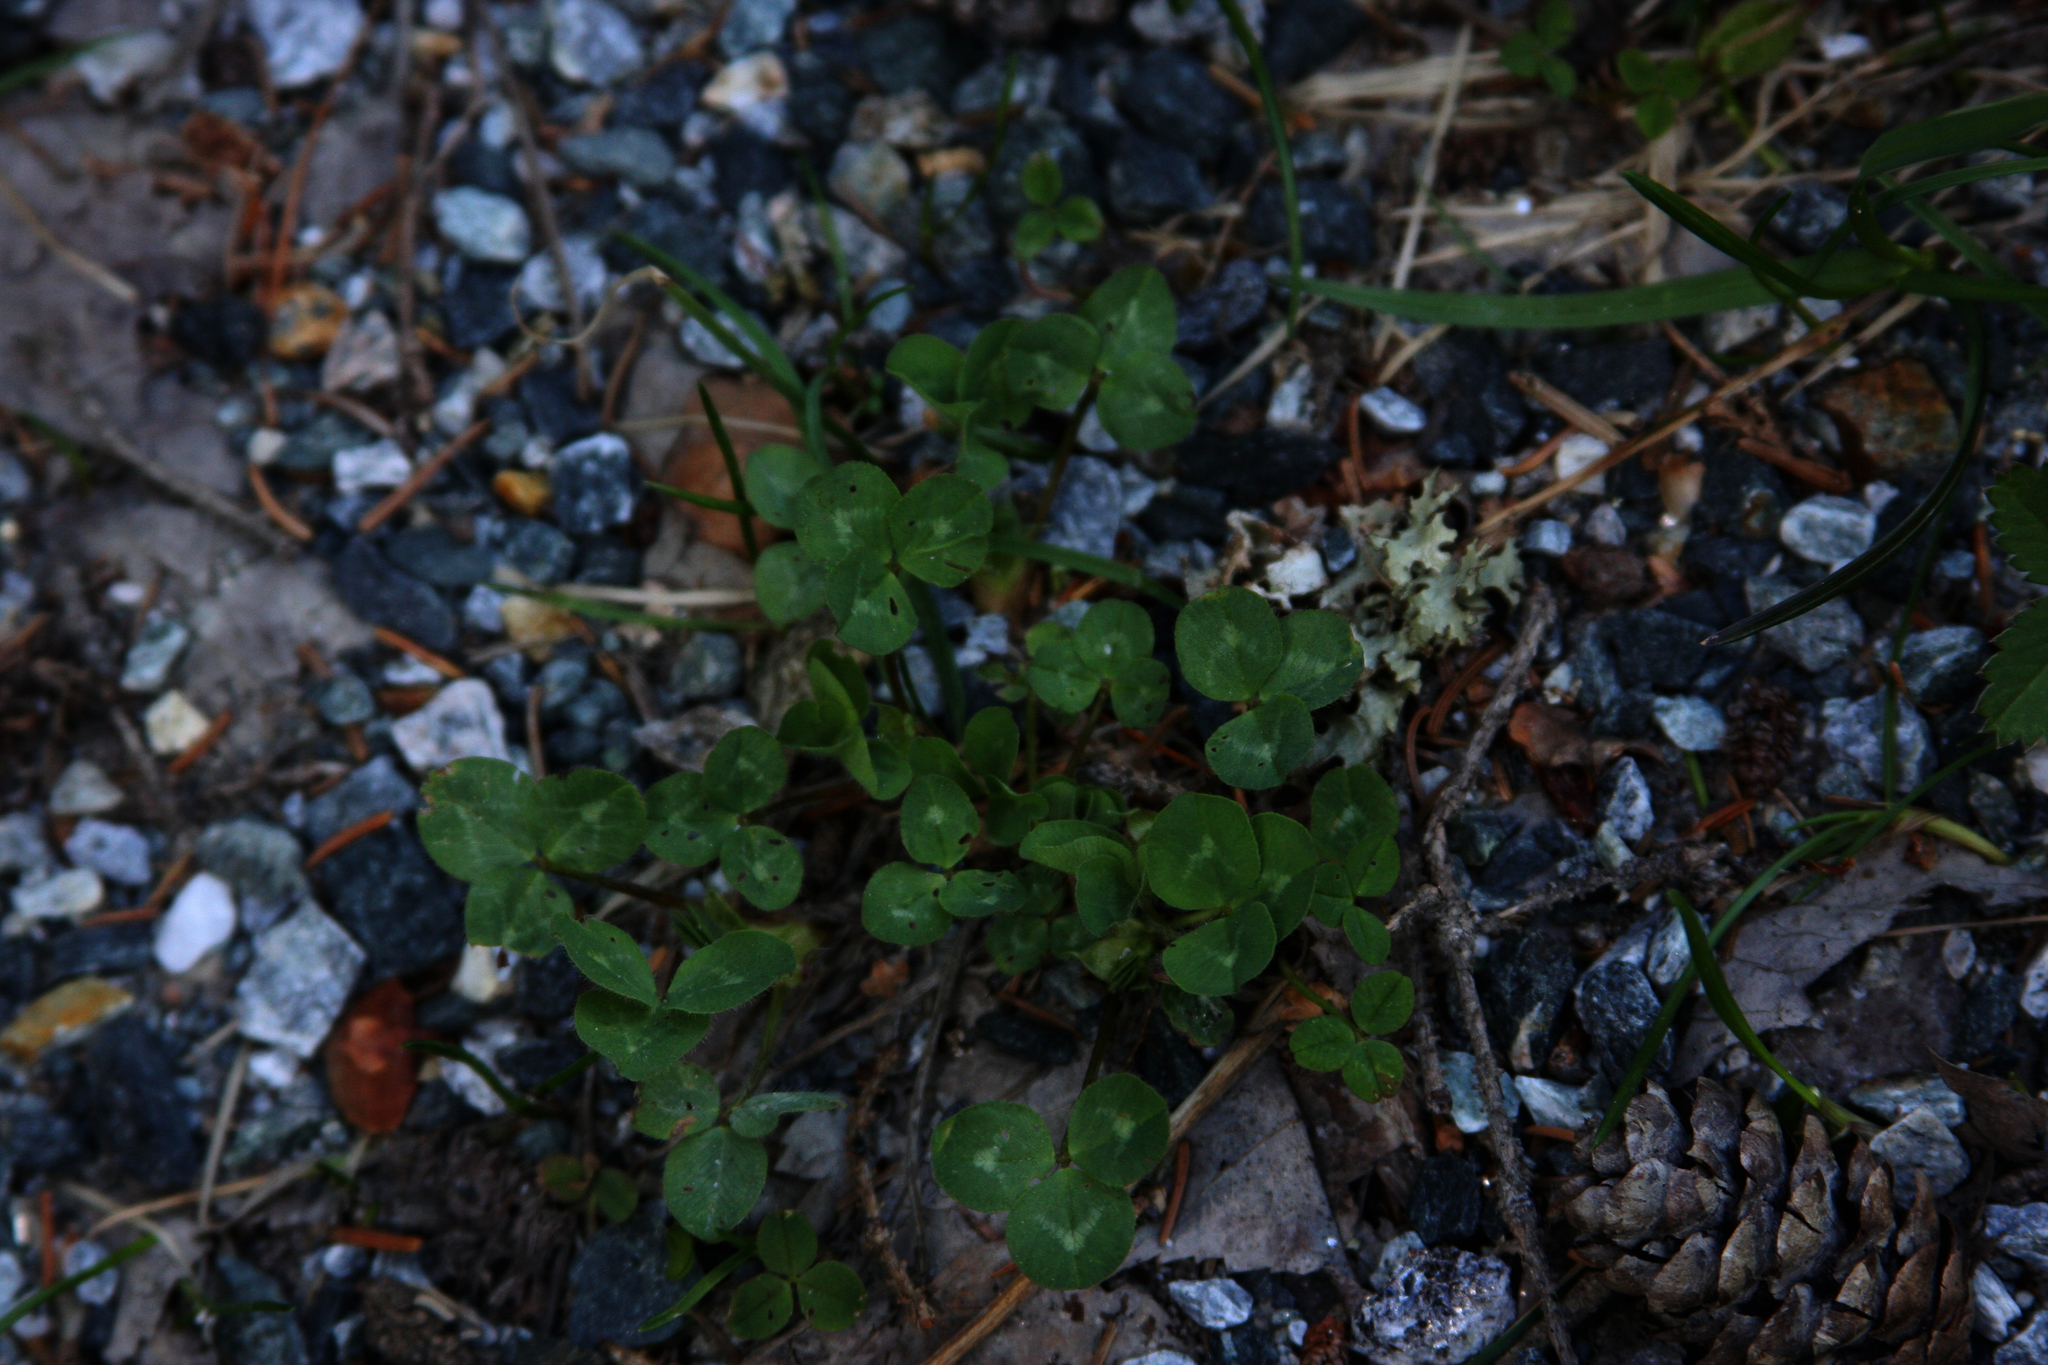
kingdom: Plantae
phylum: Tracheophyta
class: Magnoliopsida
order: Fabales
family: Fabaceae
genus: Trifolium
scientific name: Trifolium repens
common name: White clover
